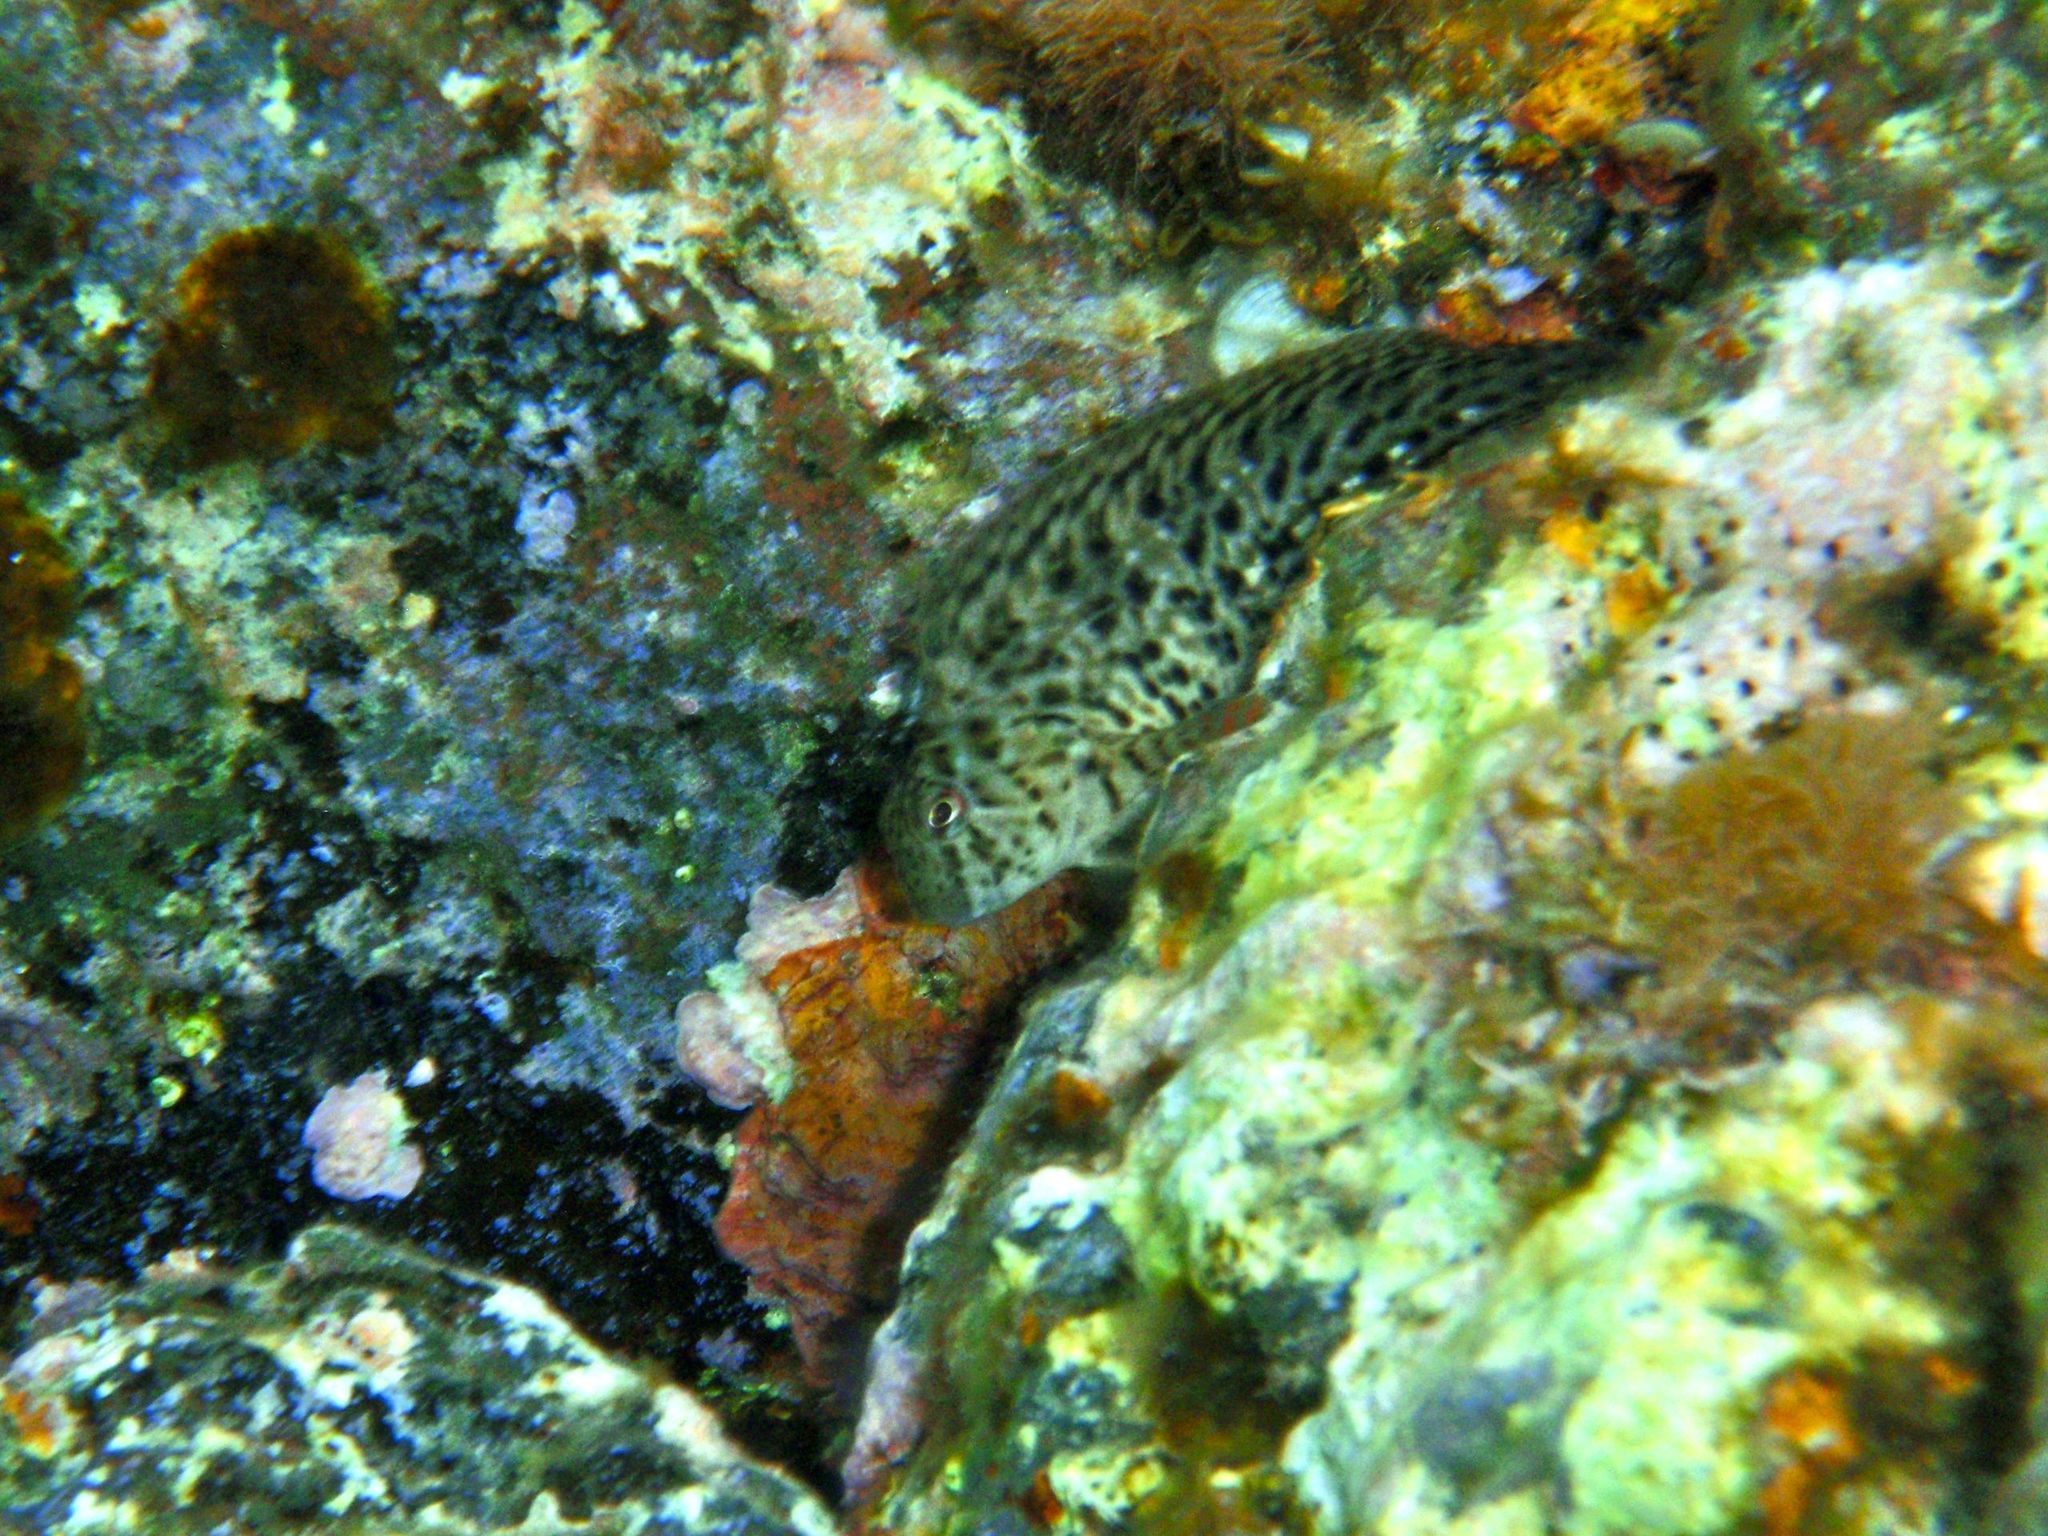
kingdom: Animalia
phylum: Chordata
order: Perciformes
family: Blenniidae
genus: Parablennius
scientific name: Parablennius sanguinolentus
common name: Black sea blenny
